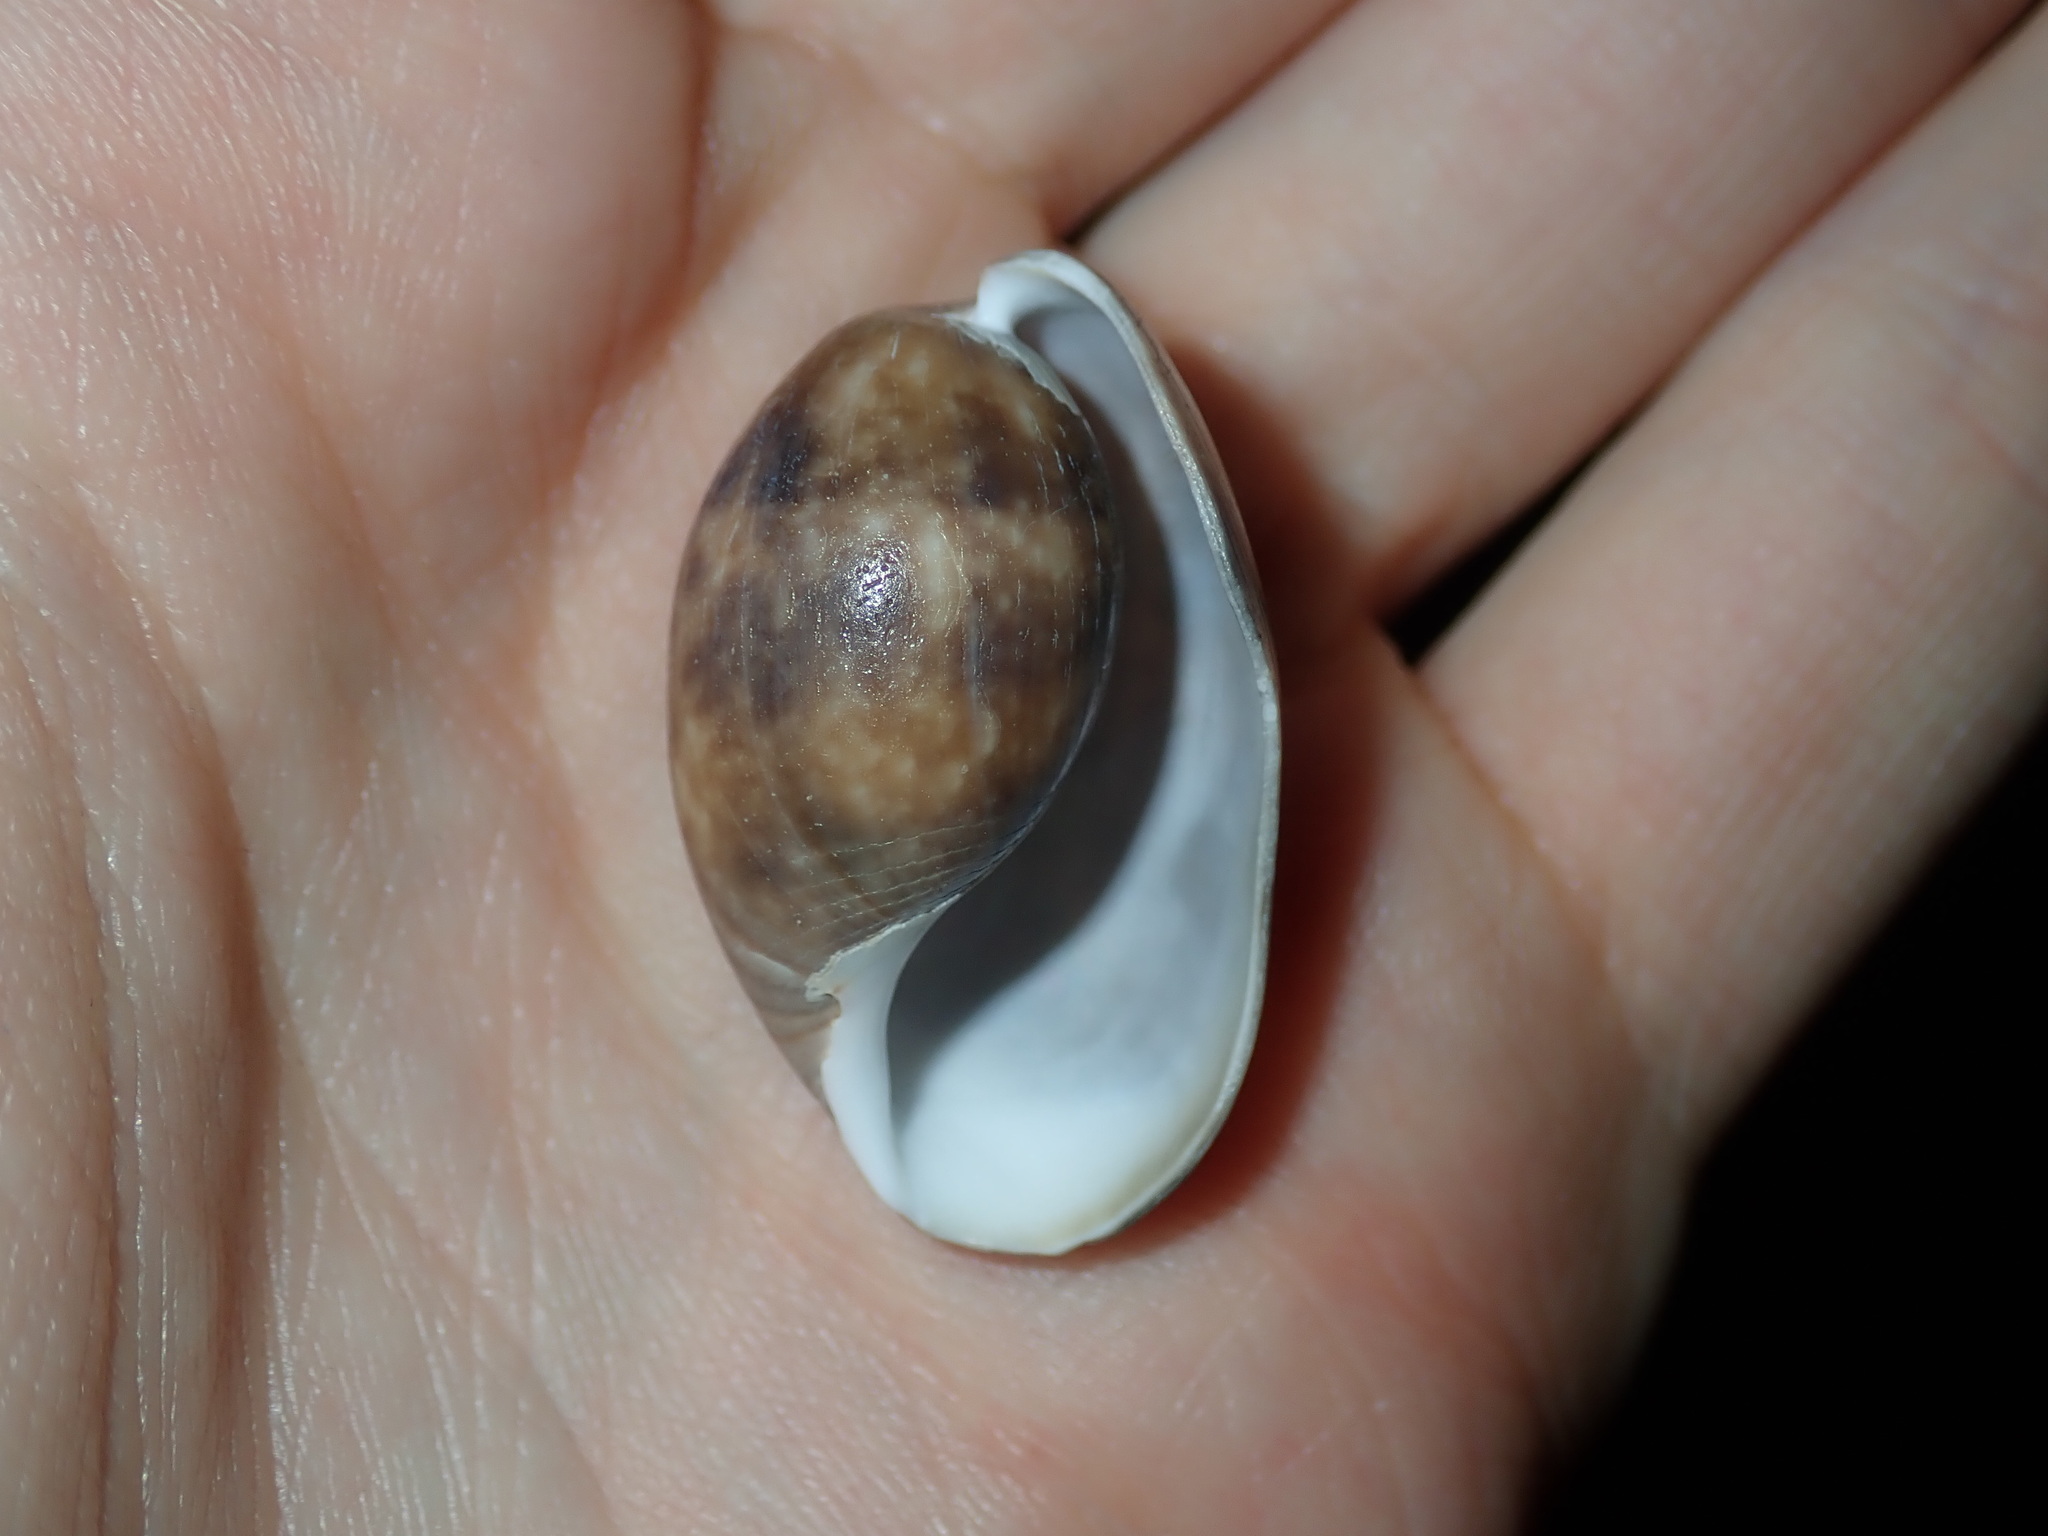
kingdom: Animalia
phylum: Mollusca
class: Gastropoda
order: Cephalaspidea
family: Bullidae
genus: Bulla
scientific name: Bulla quoyii
